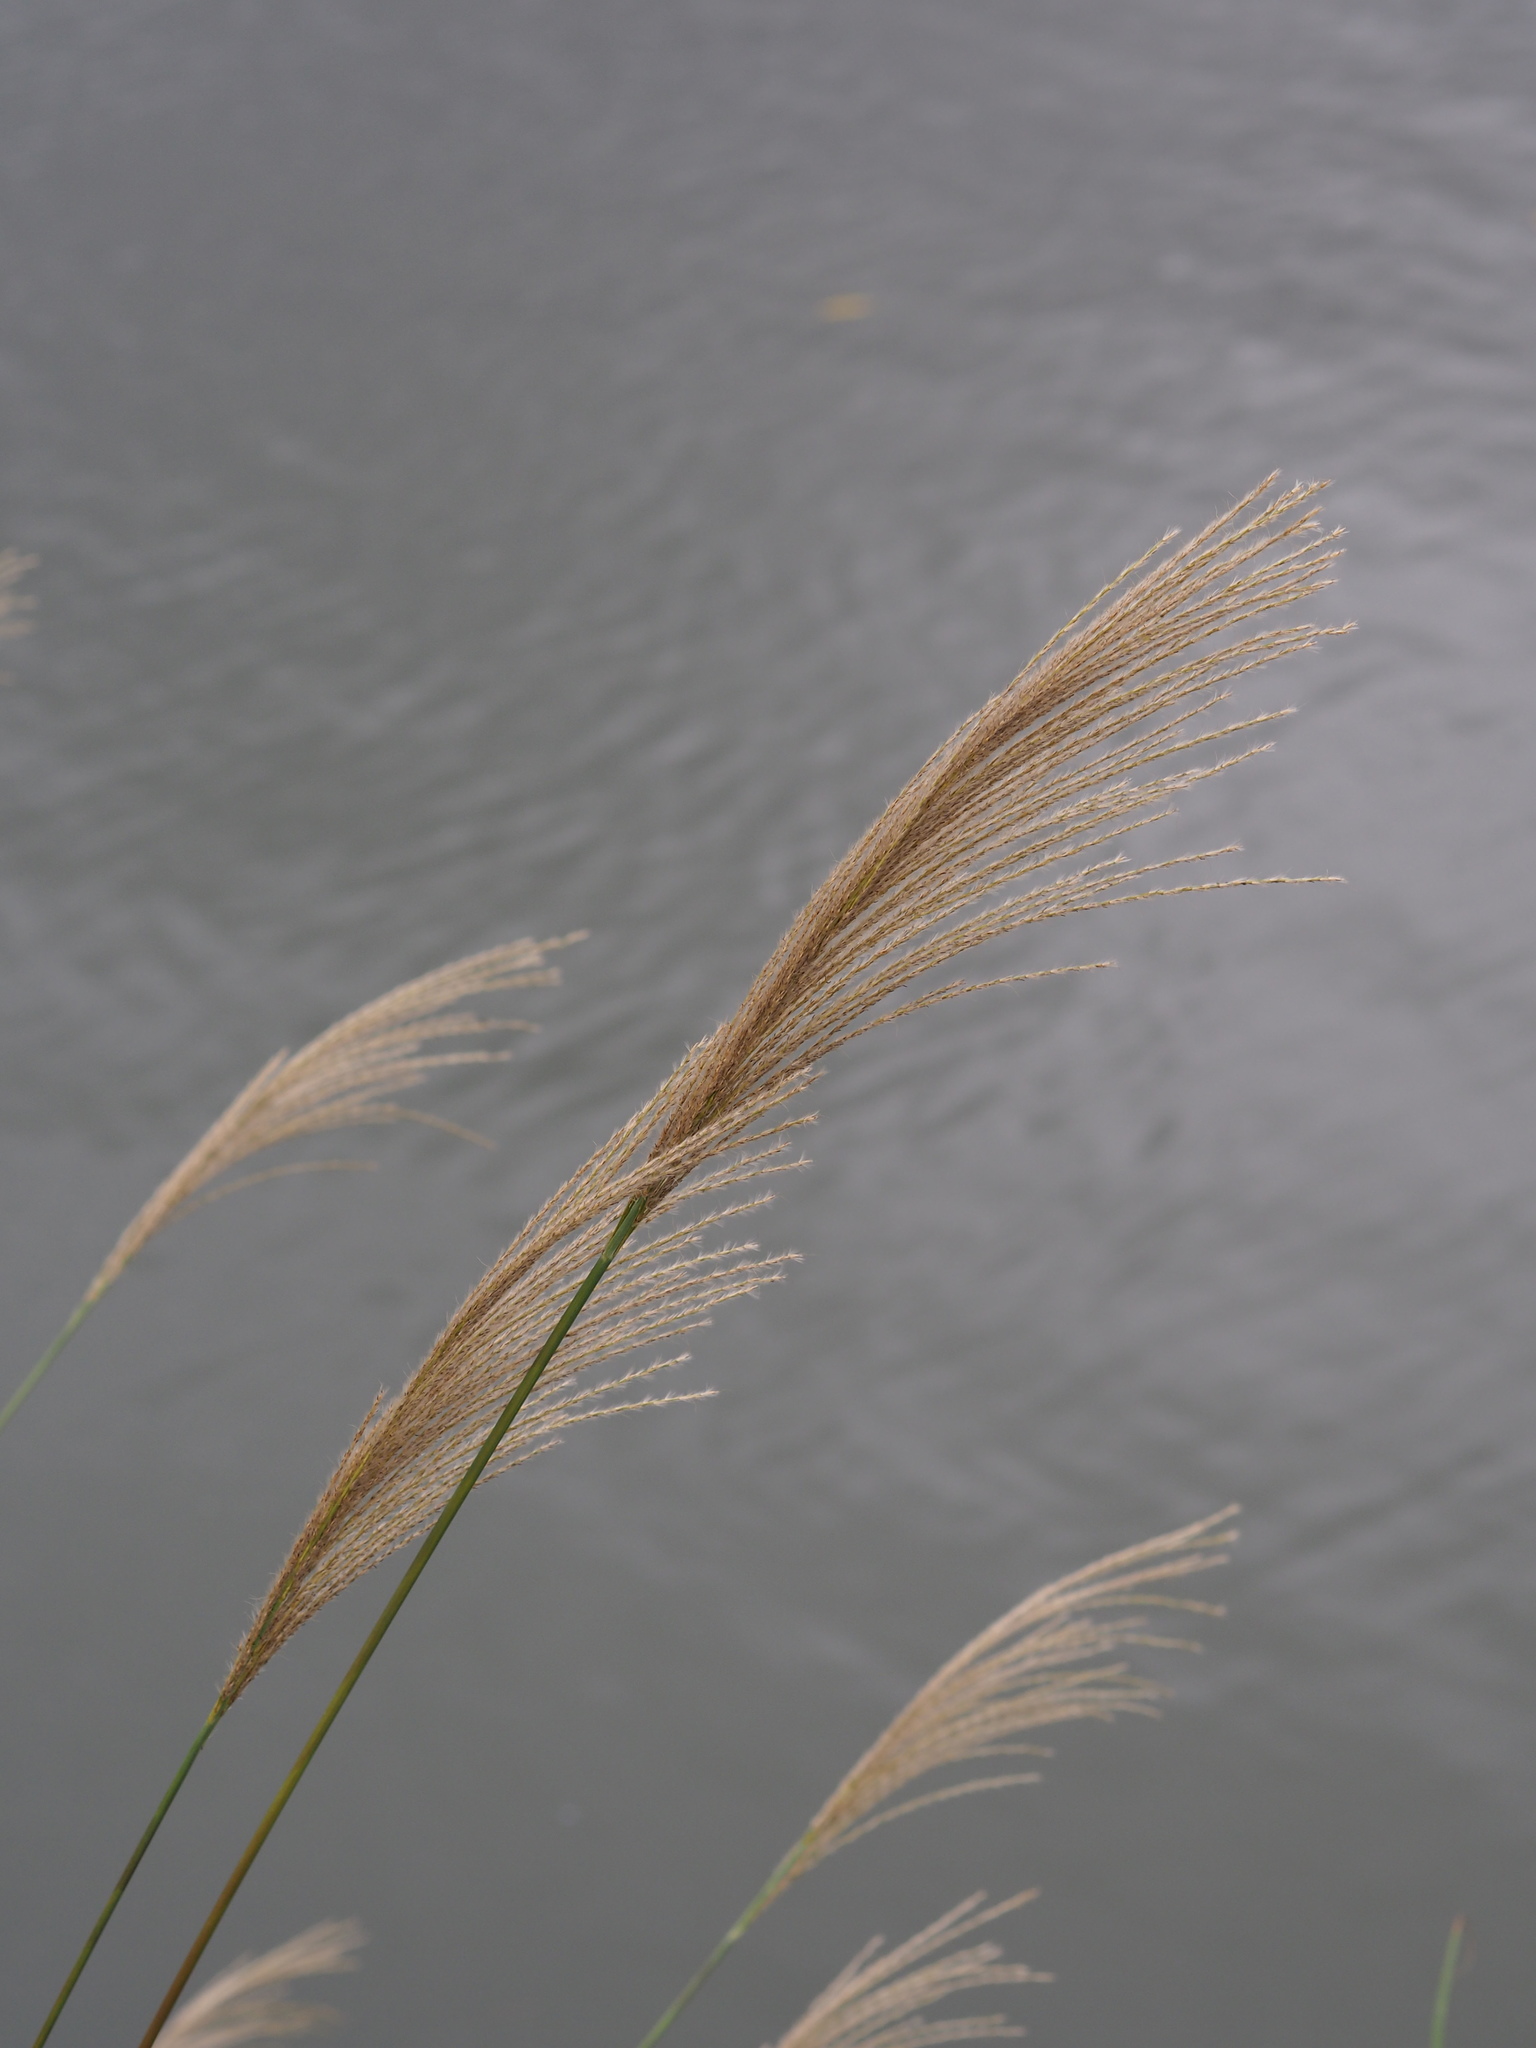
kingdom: Plantae
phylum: Tracheophyta
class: Liliopsida
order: Poales
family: Poaceae
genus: Miscanthus
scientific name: Miscanthus sinensis
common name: Chinese silvergrass
